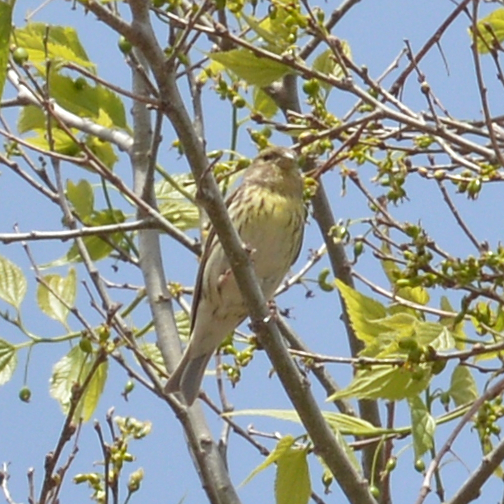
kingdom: Animalia
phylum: Chordata
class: Aves
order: Passeriformes
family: Fringillidae
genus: Serinus
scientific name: Serinus serinus
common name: European serin
